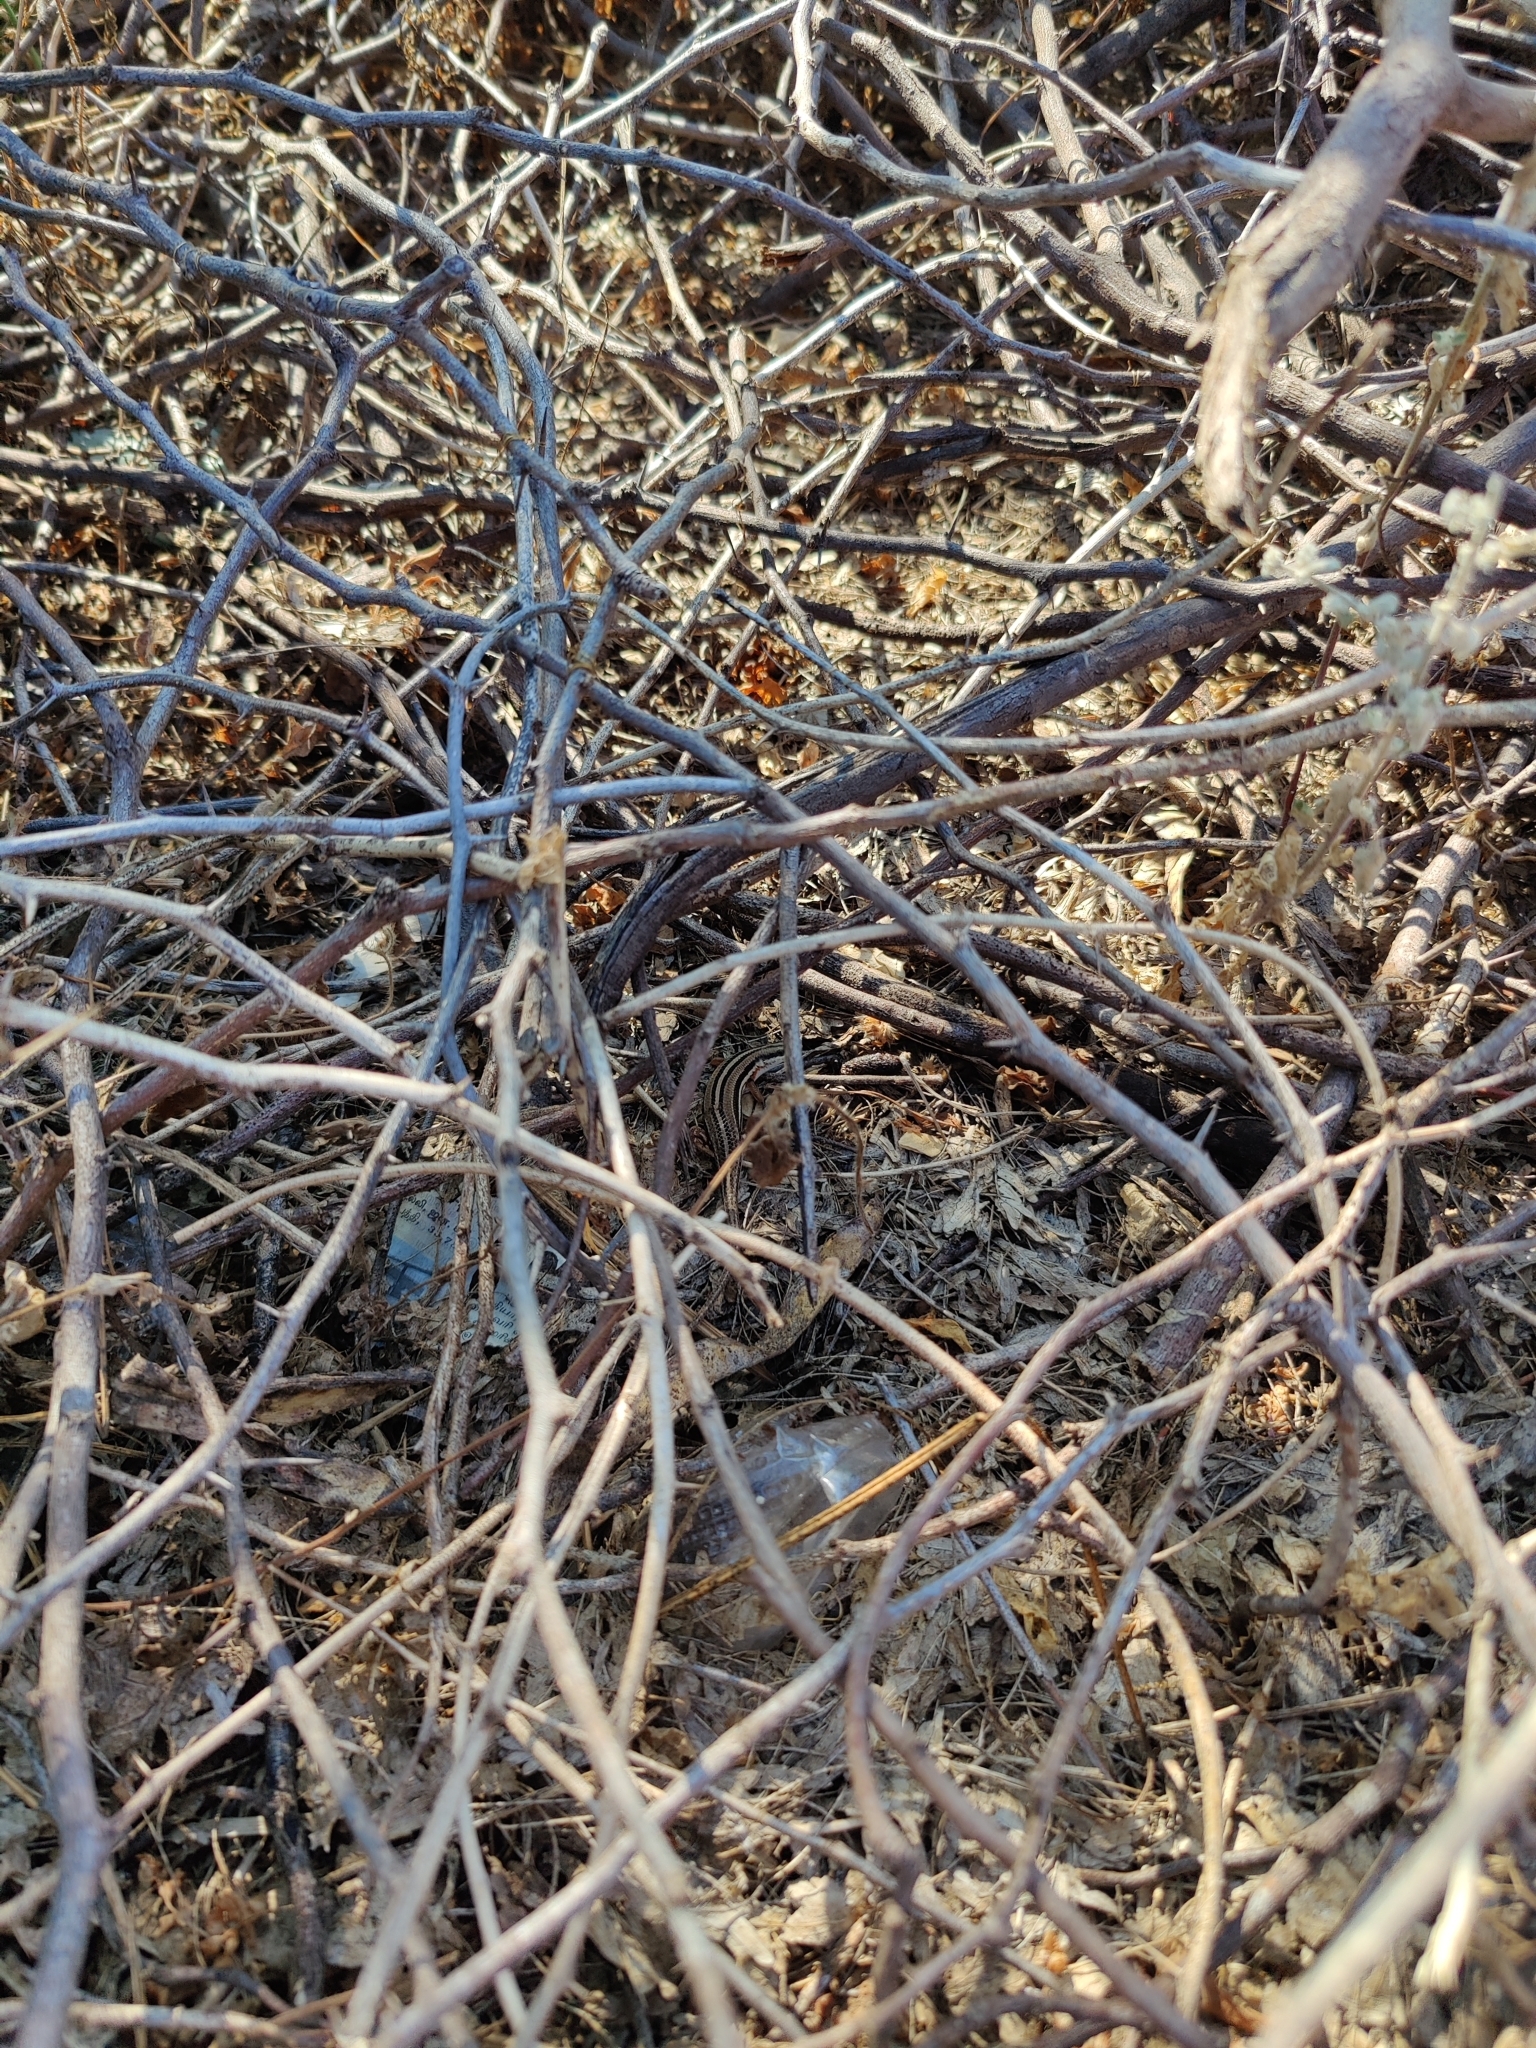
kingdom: Animalia
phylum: Chordata
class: Squamata
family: Scincidae
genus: Eutropis
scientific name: Eutropis bibronii
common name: Bibron's skink
